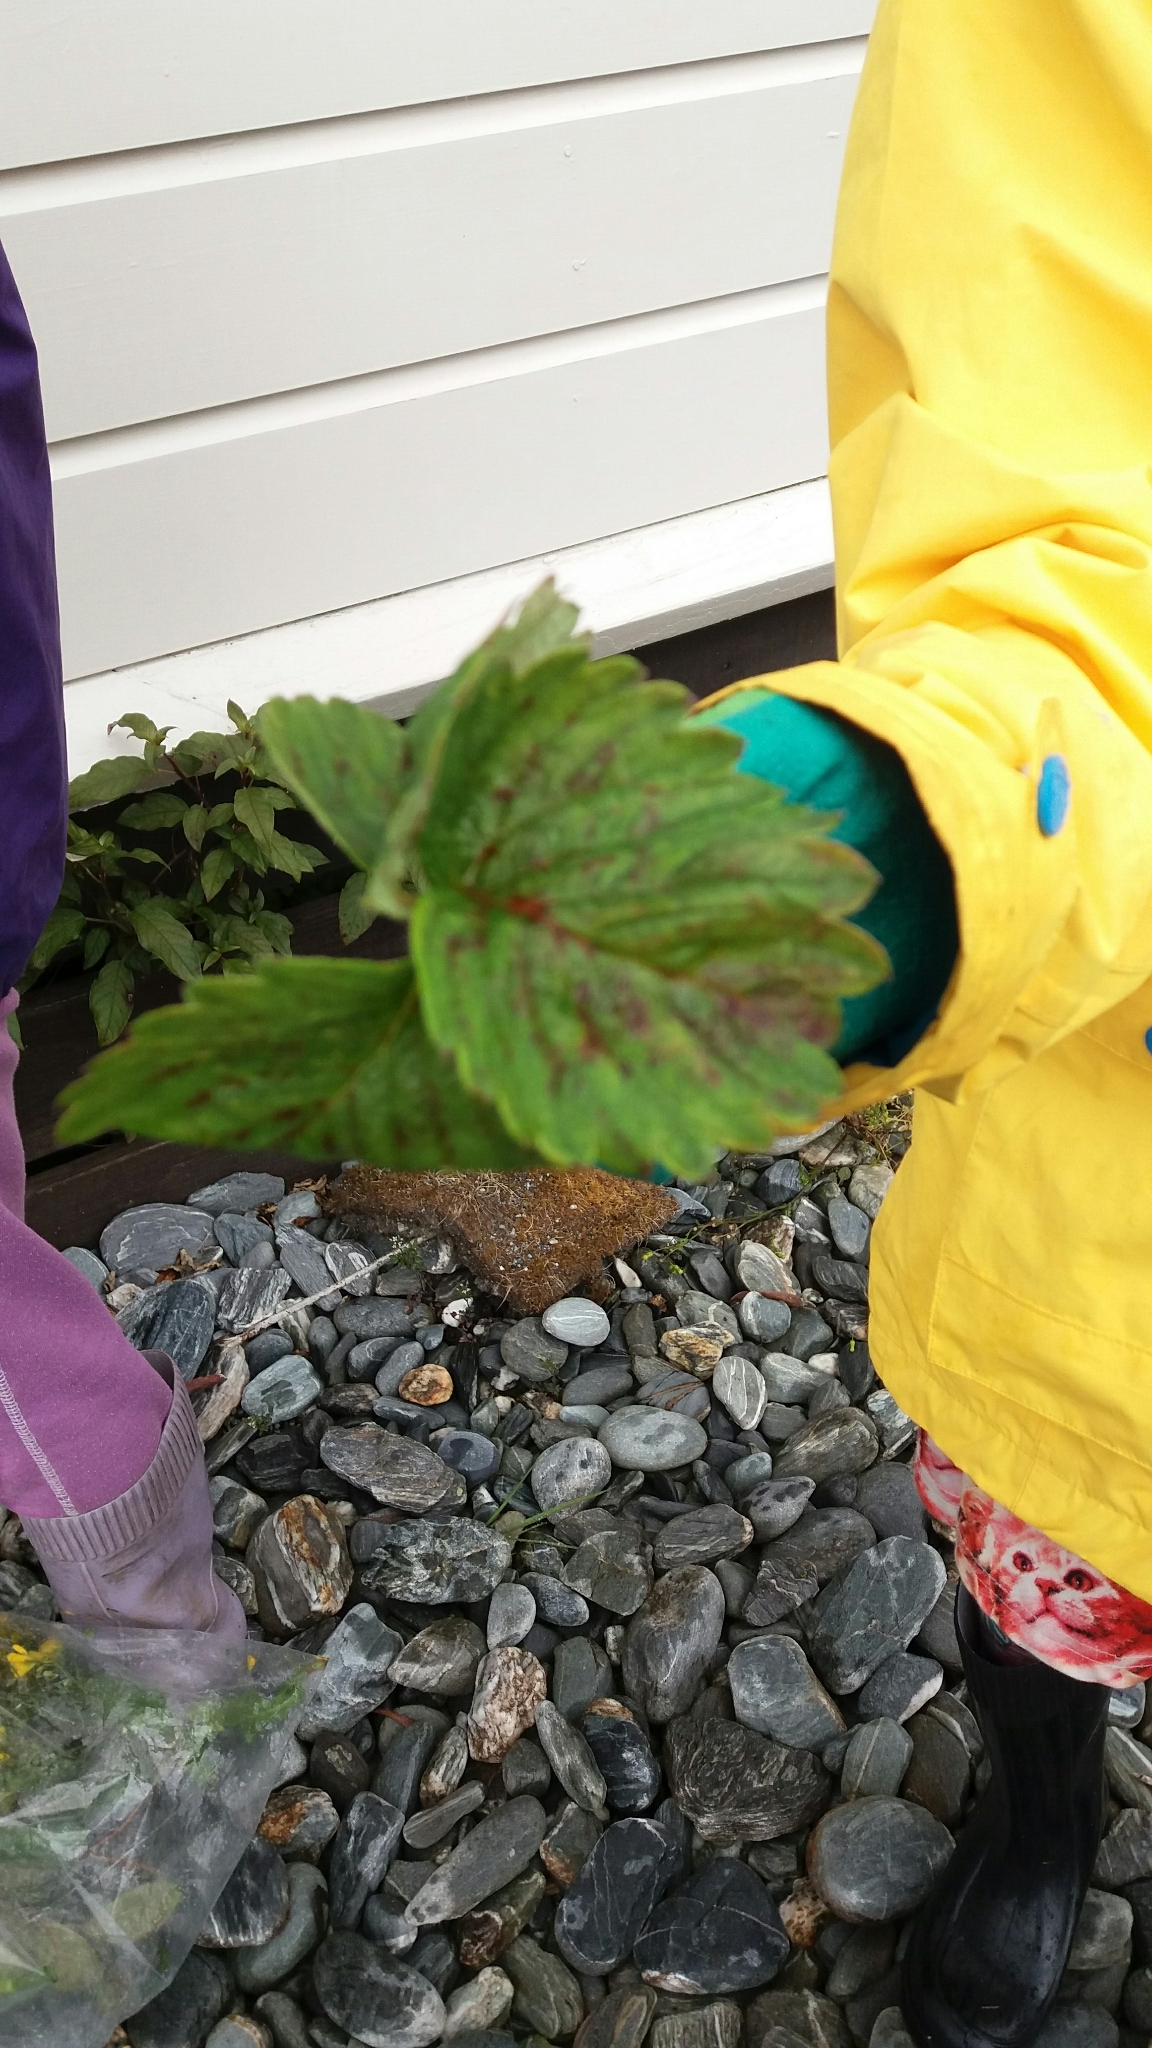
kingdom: Plantae
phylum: Tracheophyta
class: Magnoliopsida
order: Rosales
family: Rosaceae
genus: Fragaria
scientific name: Fragaria ananassa
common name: Garden strawberry
